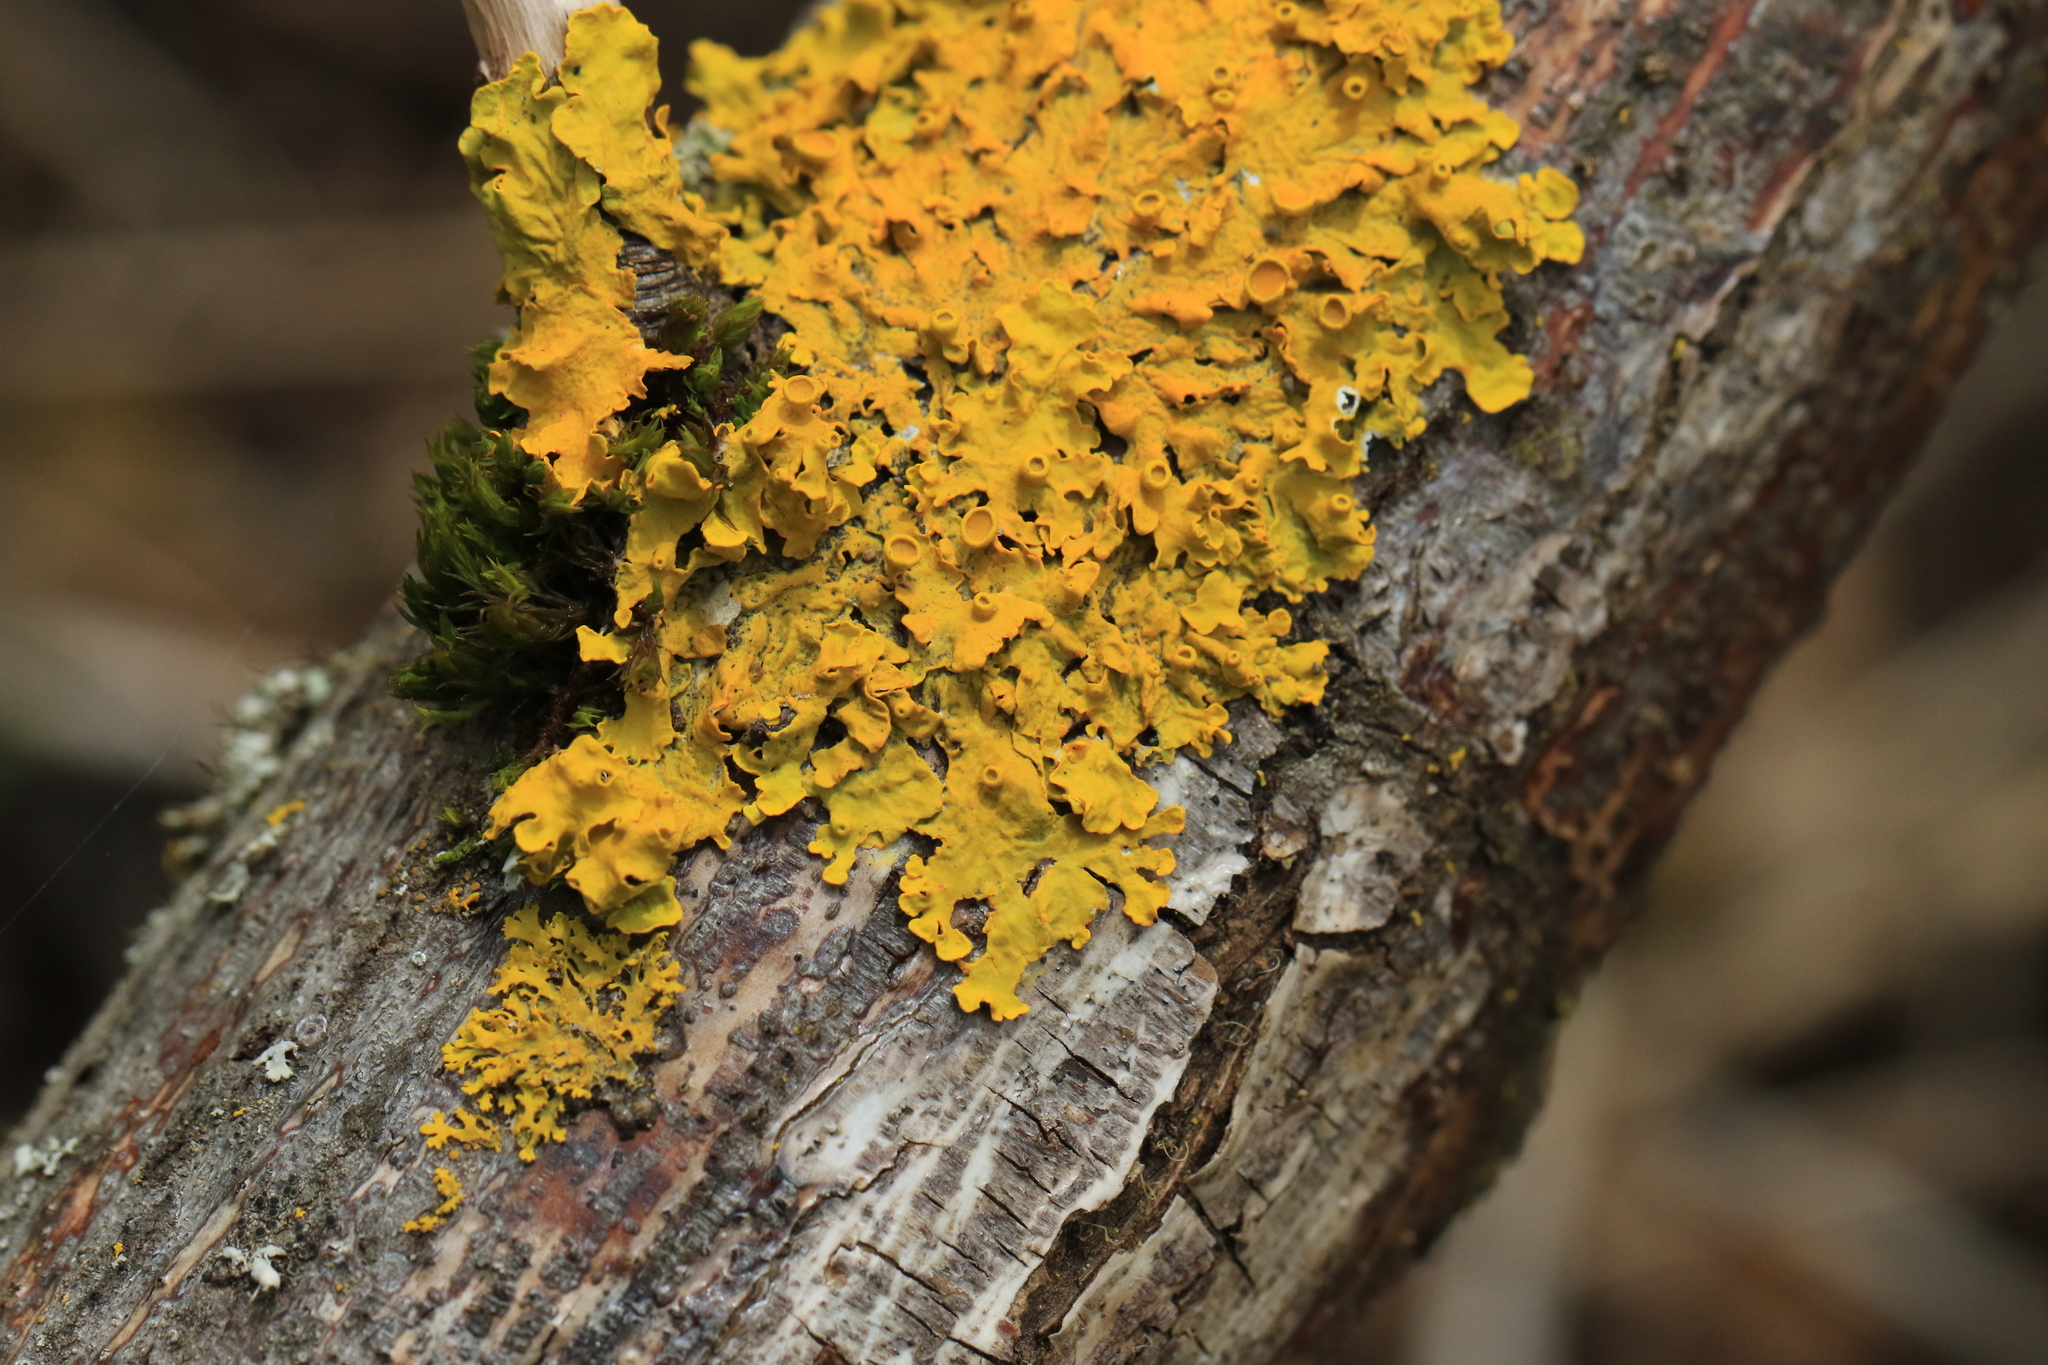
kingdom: Fungi
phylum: Ascomycota
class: Lecanoromycetes
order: Teloschistales
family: Teloschistaceae
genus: Xanthoria
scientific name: Xanthoria parietina
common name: Common orange lichen
